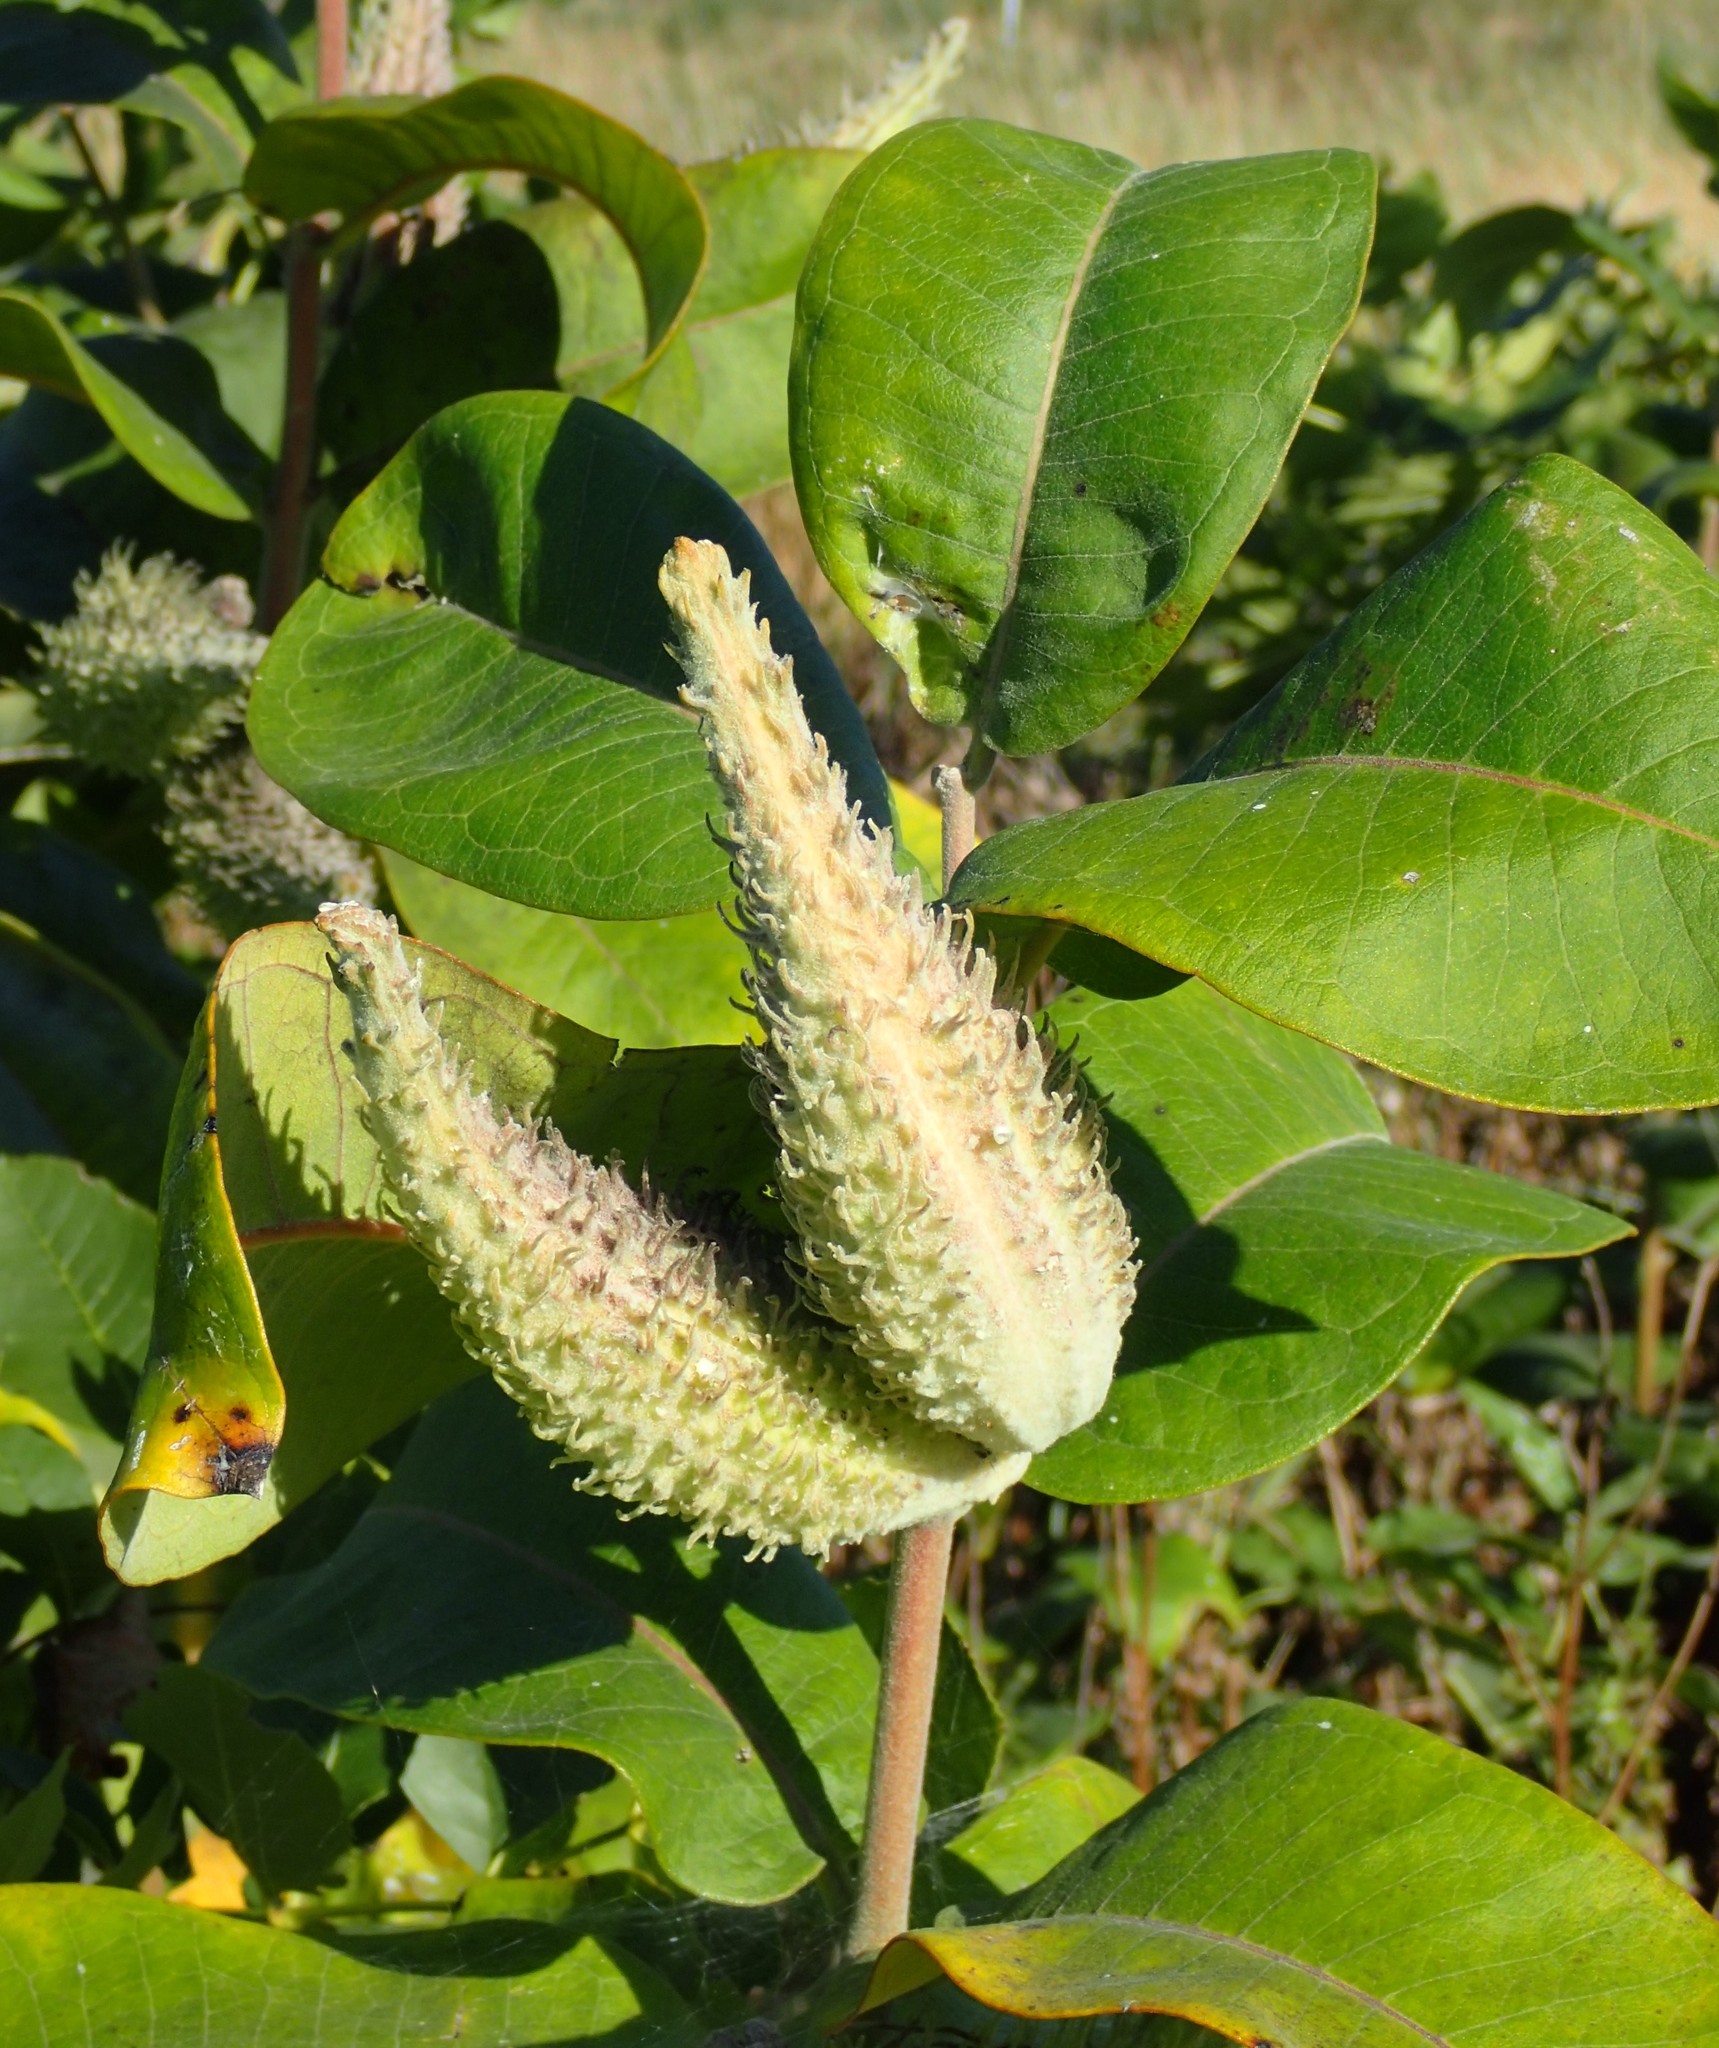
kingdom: Plantae
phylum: Tracheophyta
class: Magnoliopsida
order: Gentianales
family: Apocynaceae
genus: Asclepias
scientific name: Asclepias syriaca
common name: Common milkweed
